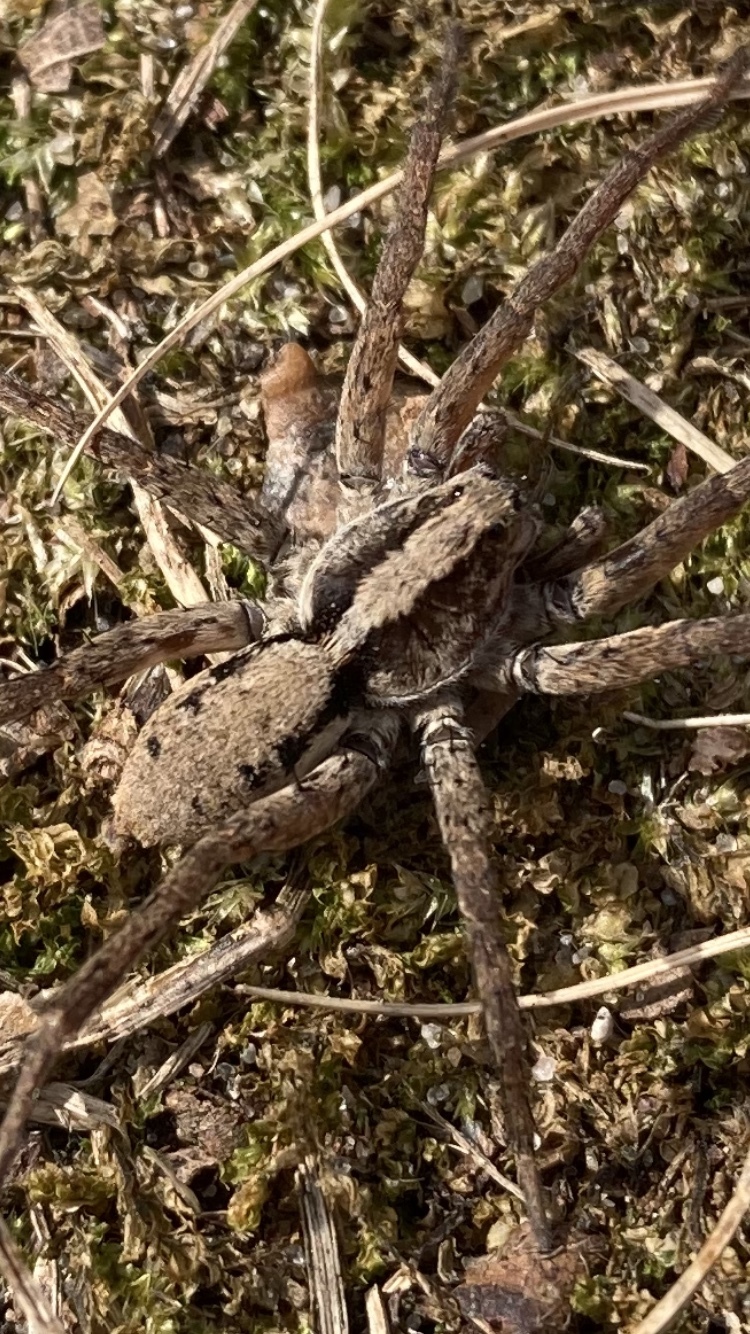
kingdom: Animalia
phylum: Arthropoda
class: Arachnida
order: Araneae
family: Lycosidae
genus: Gladicosa
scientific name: Gladicosa gulosa
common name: Drumming sword wolf spider
